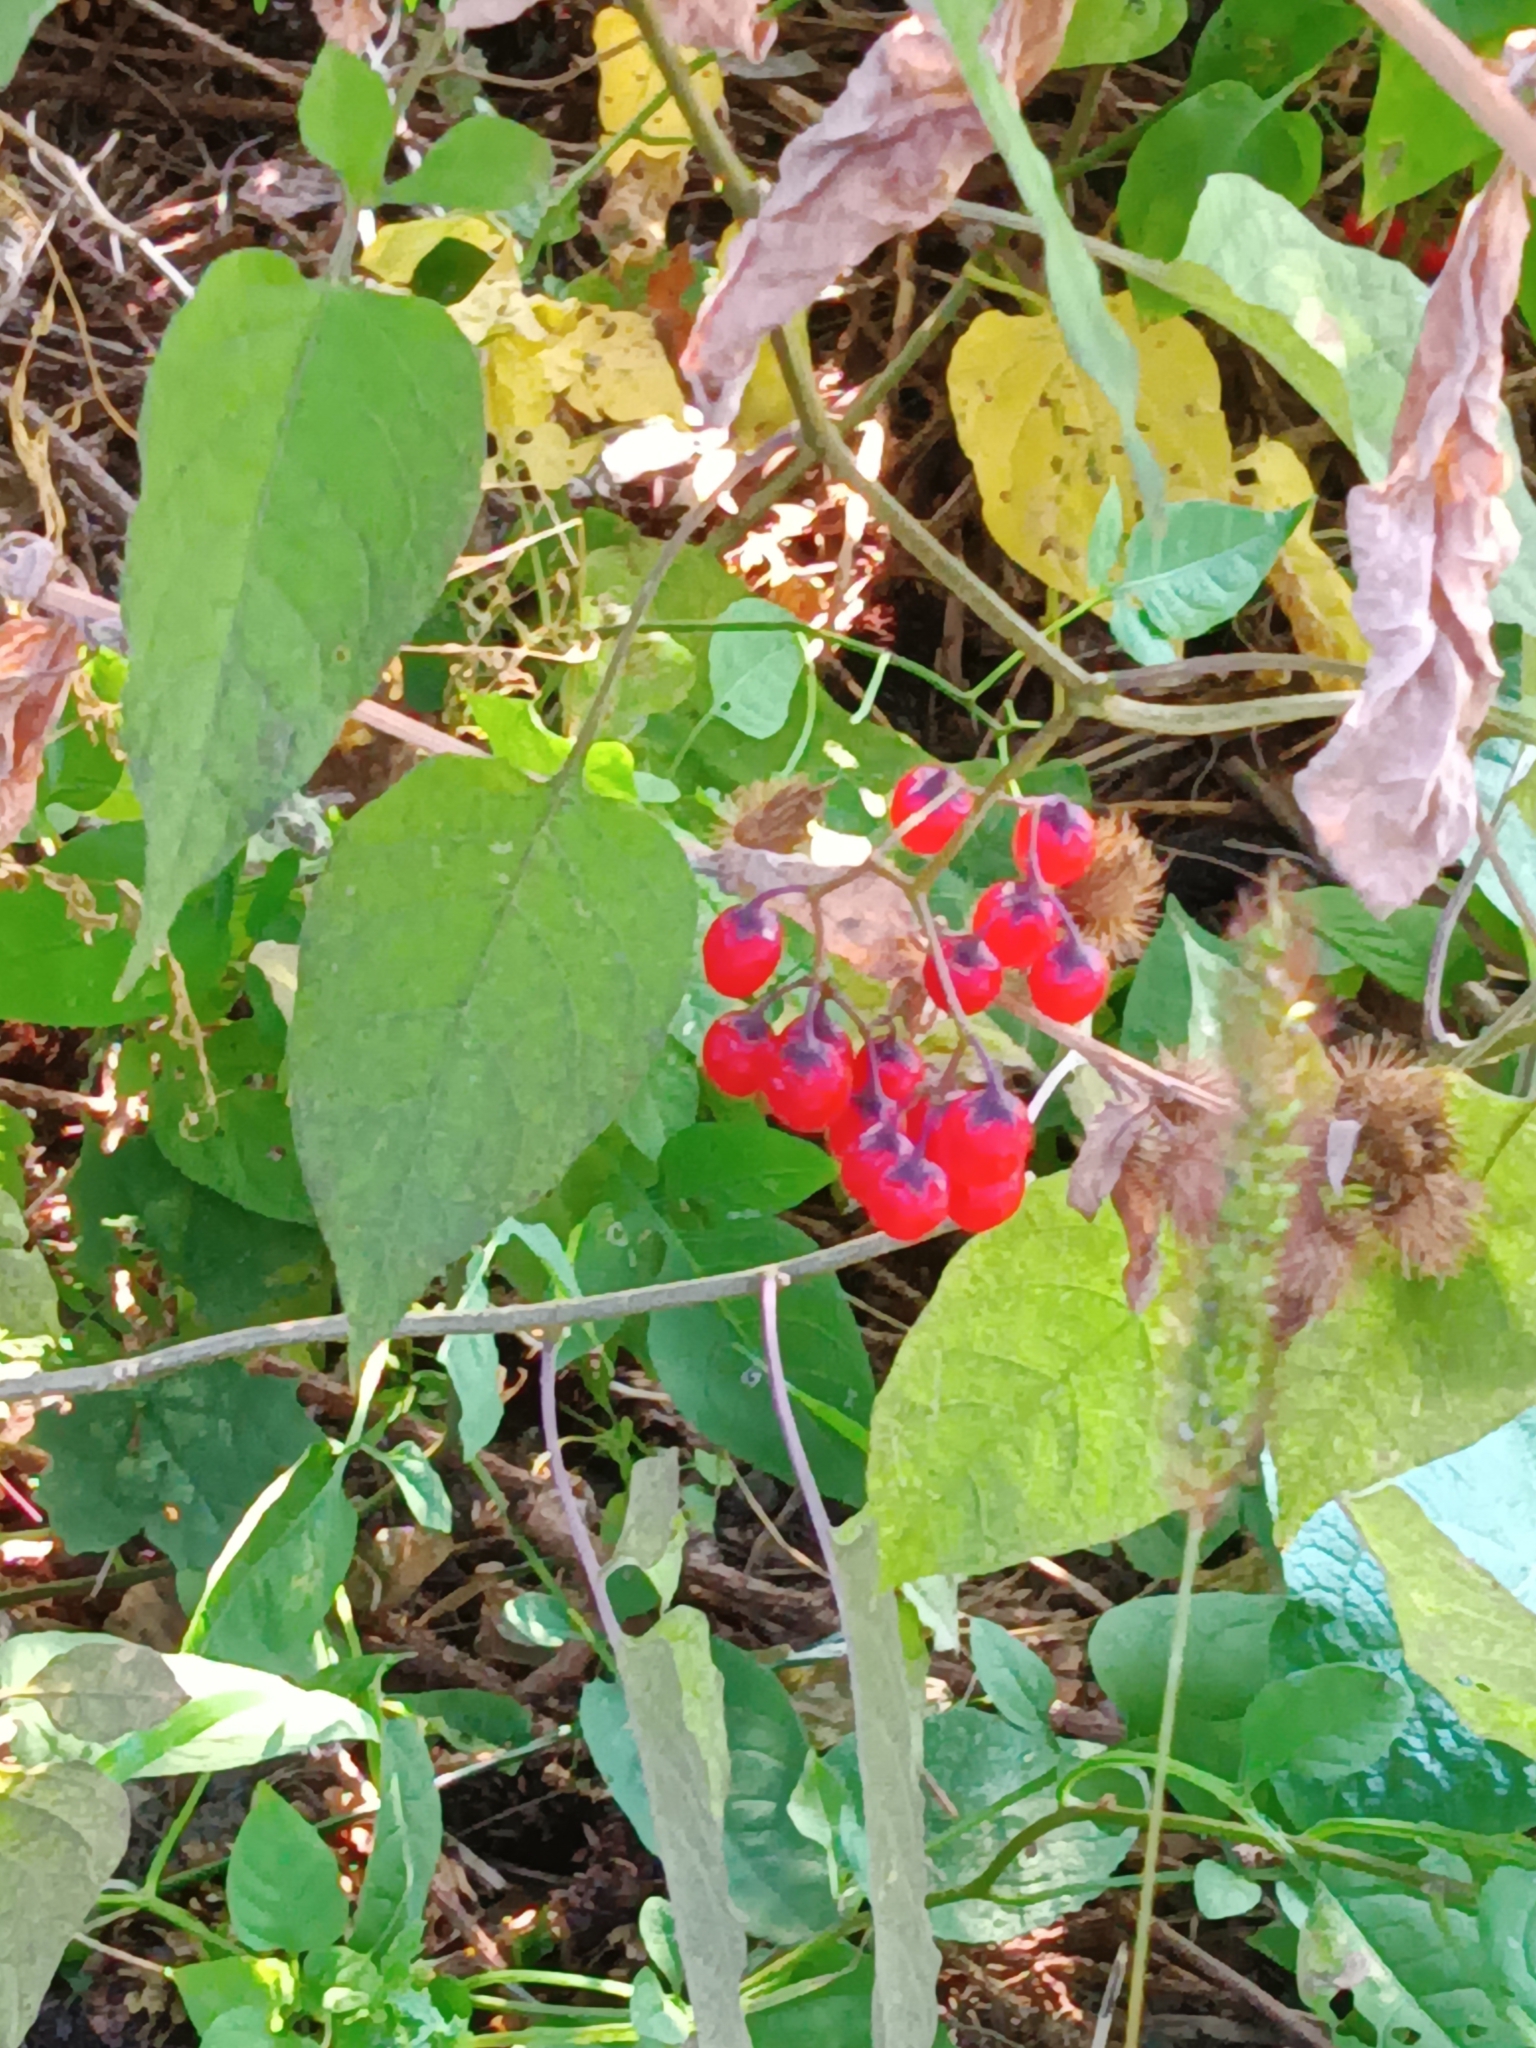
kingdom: Plantae
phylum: Tracheophyta
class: Magnoliopsida
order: Solanales
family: Solanaceae
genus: Solanum
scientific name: Solanum dulcamara
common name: Climbing nightshade
